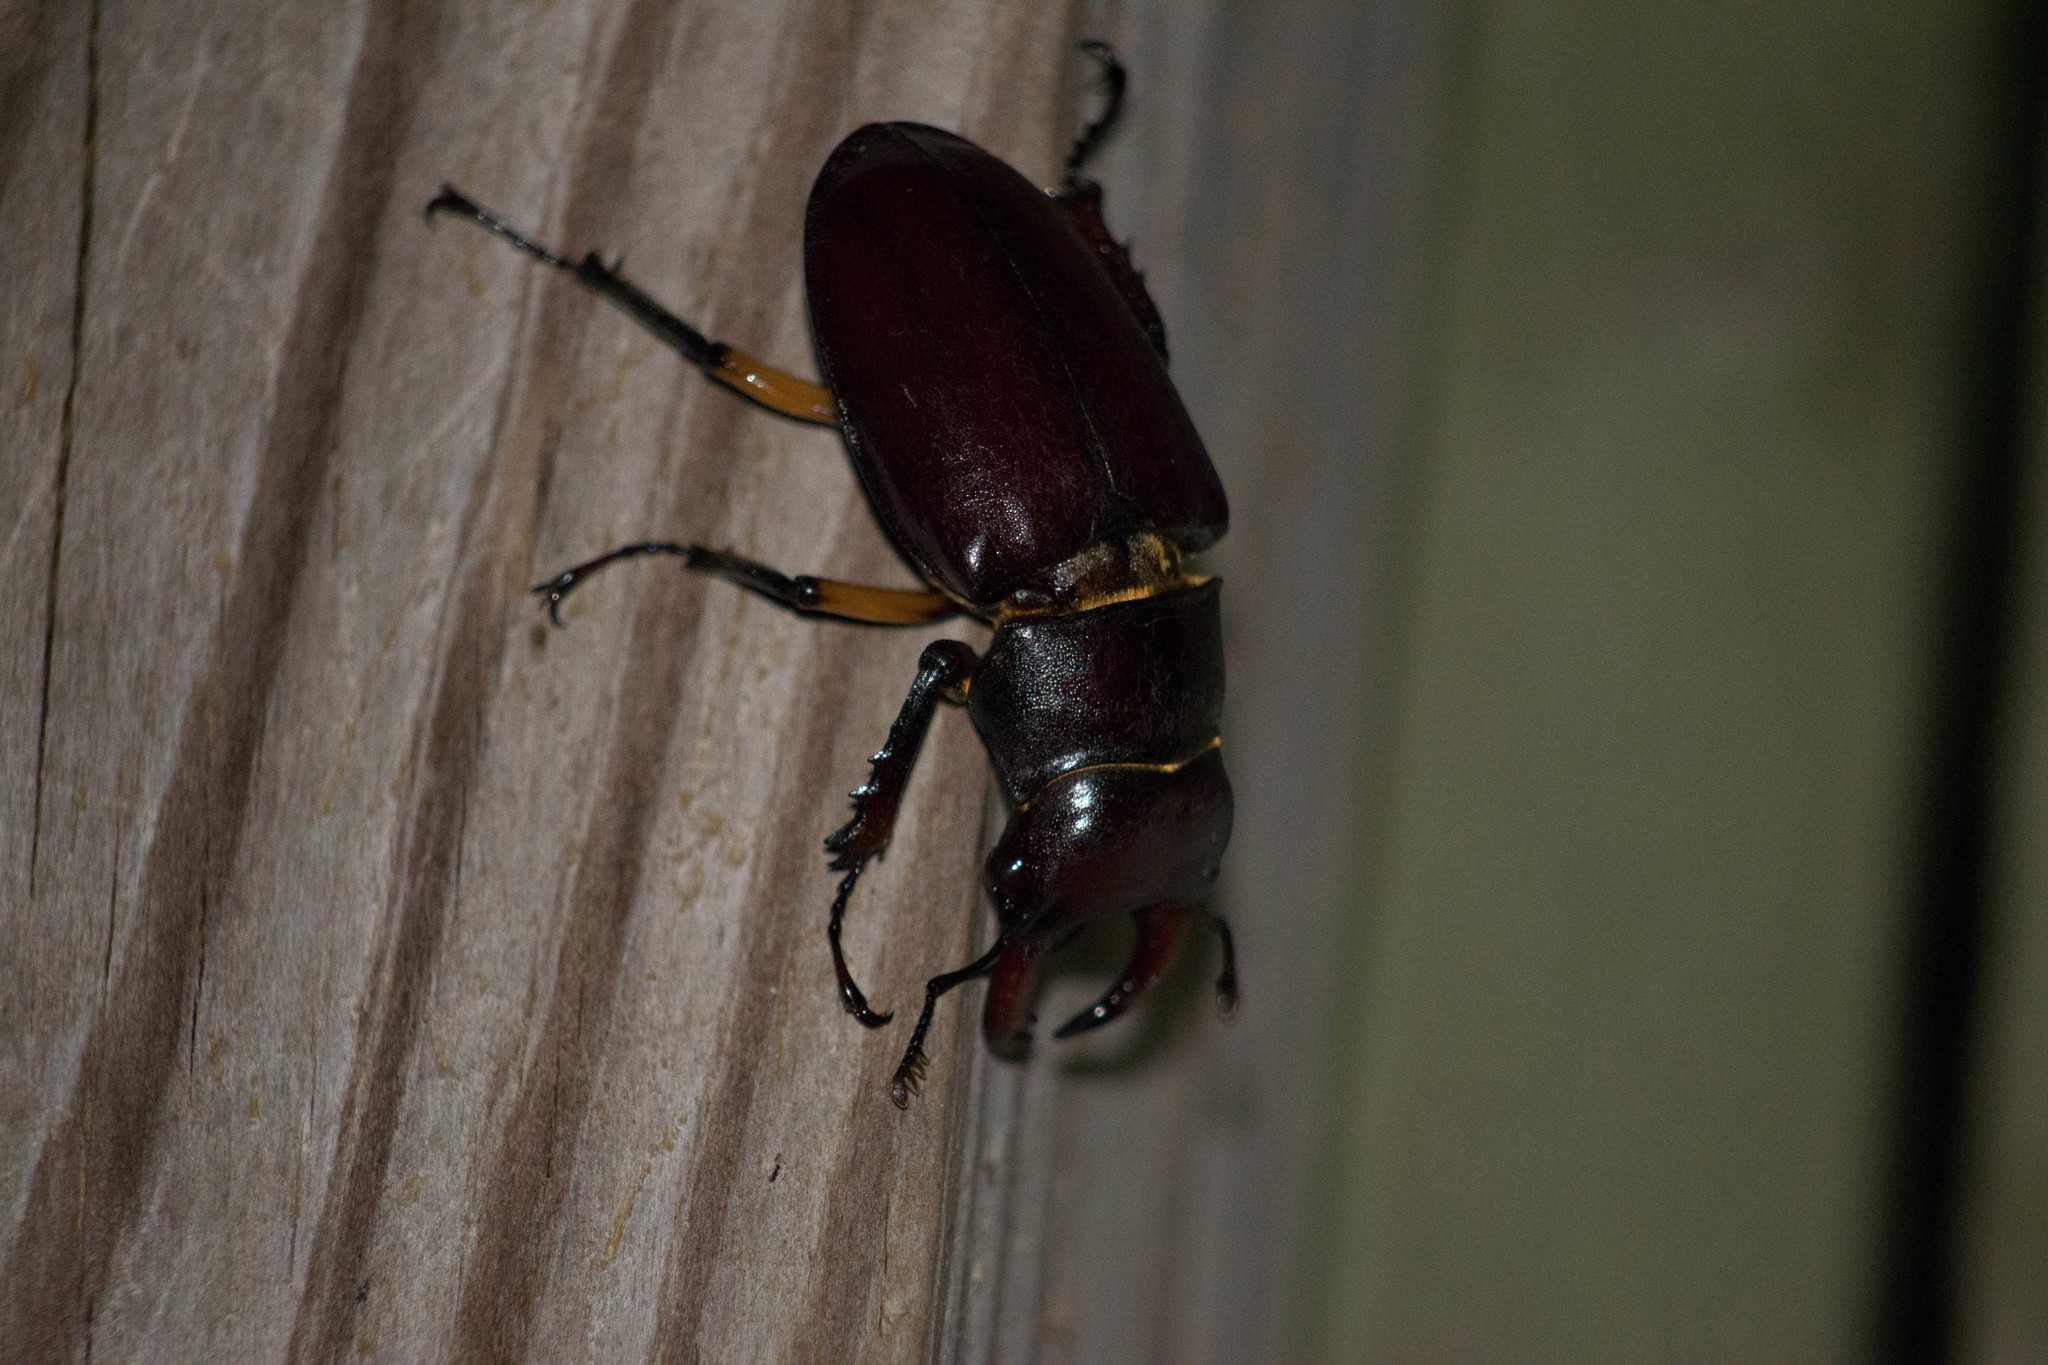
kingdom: Animalia
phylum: Arthropoda
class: Insecta
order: Coleoptera
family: Lucanidae
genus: Lucanus
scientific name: Lucanus capreolus
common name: Stag beetle
